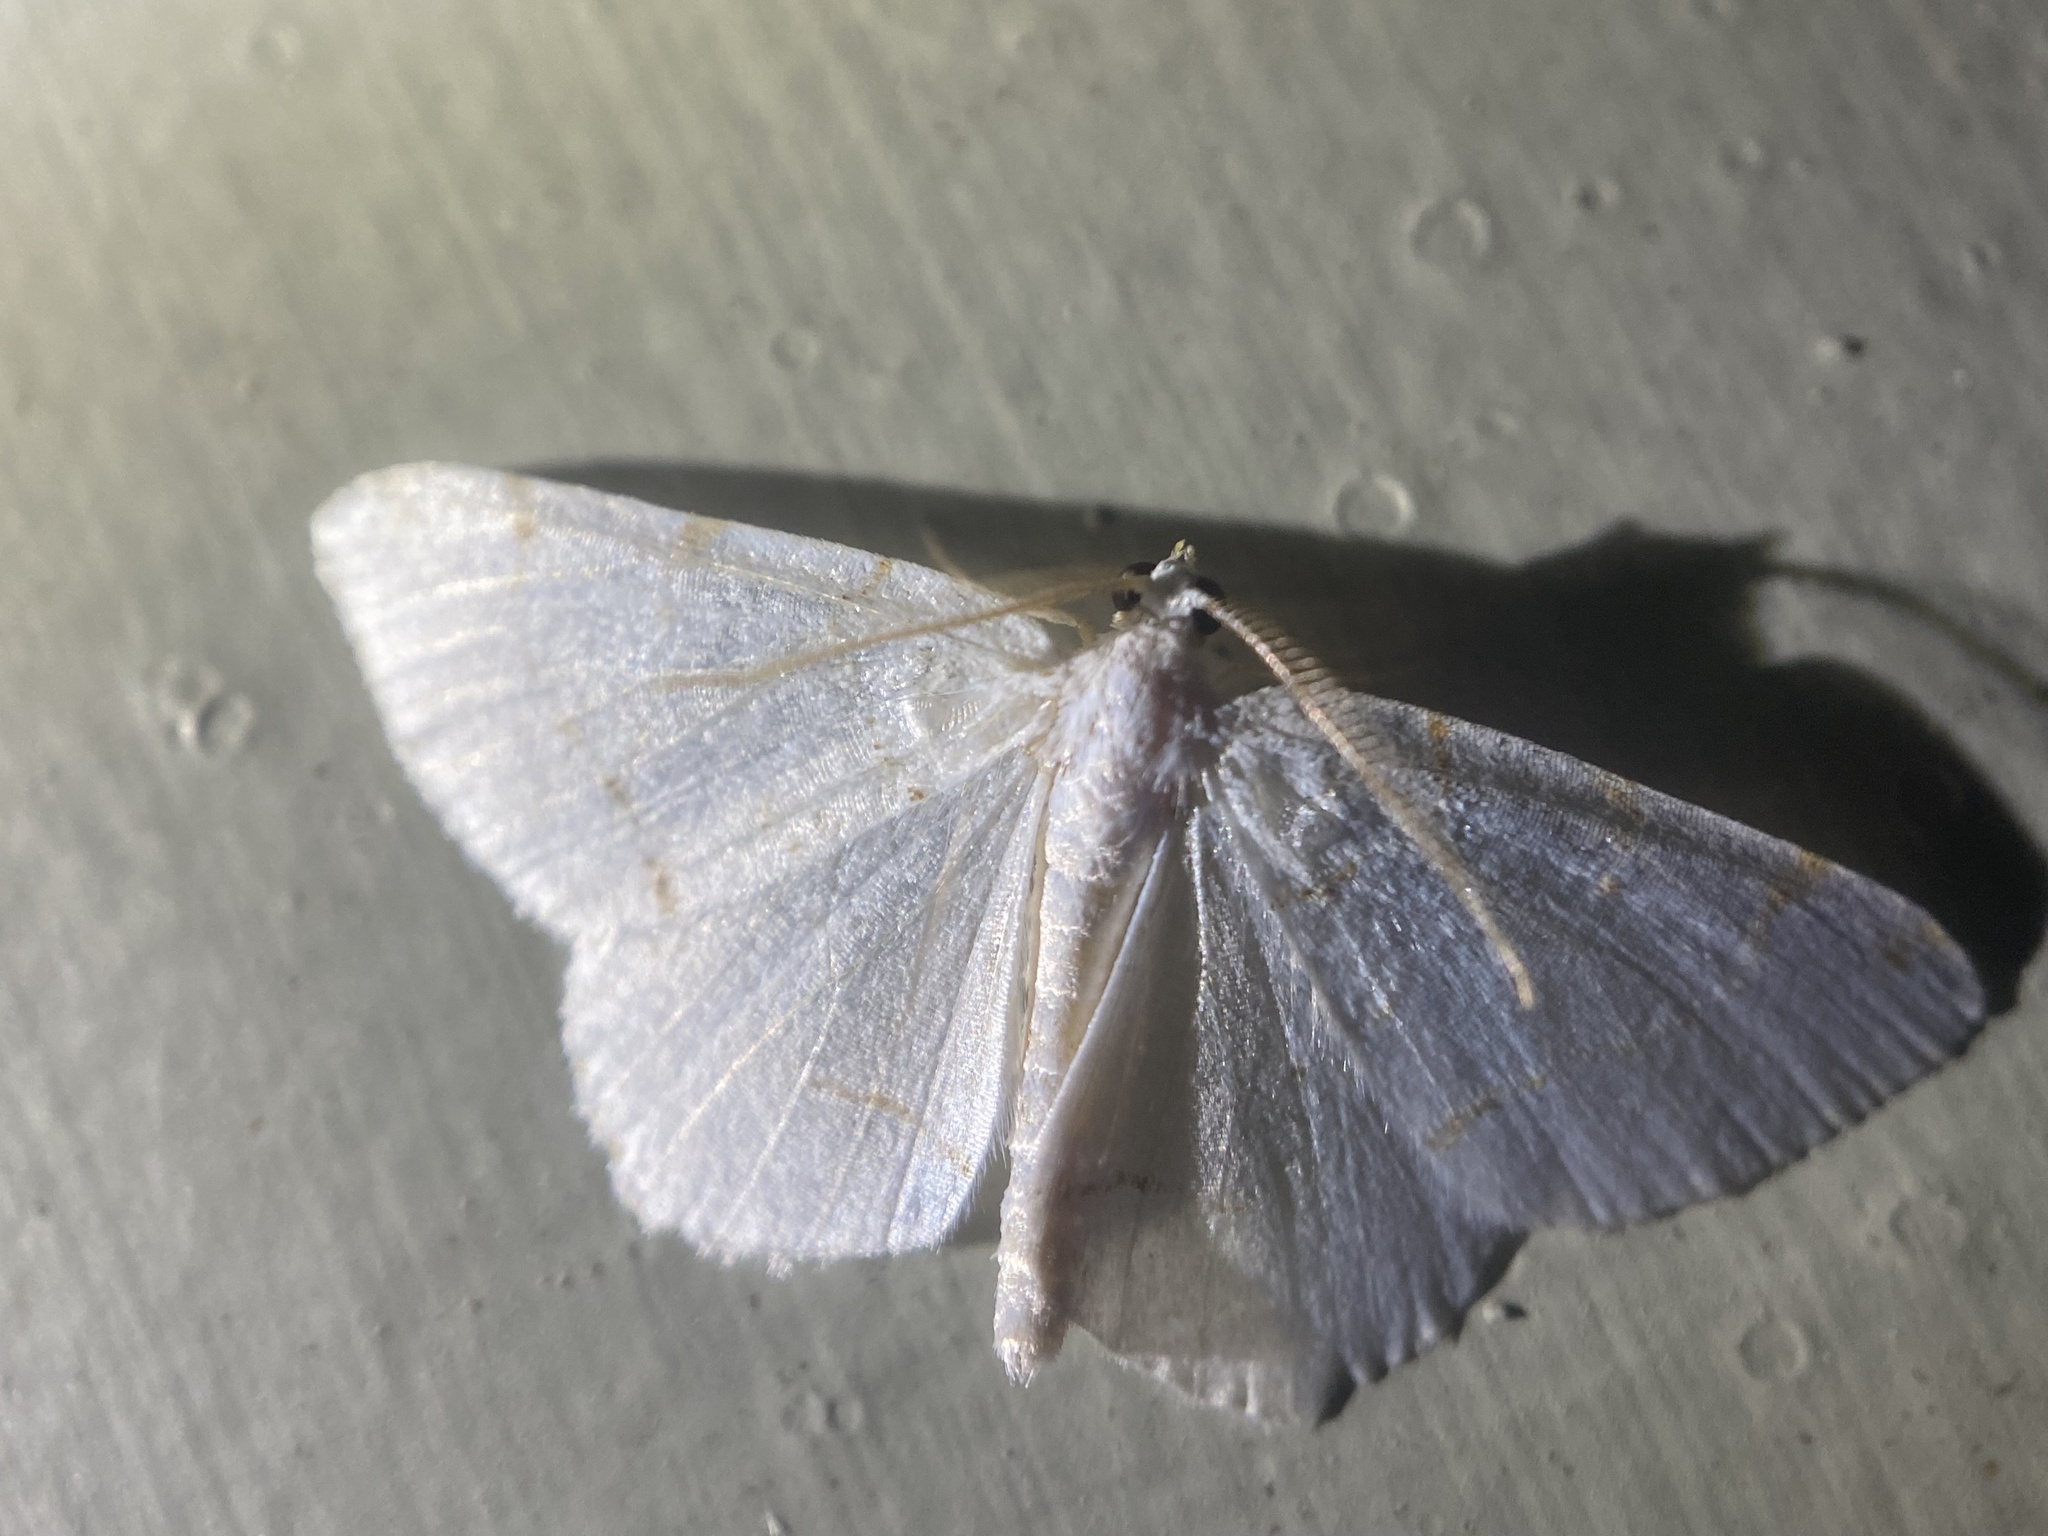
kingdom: Animalia
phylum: Arthropoda
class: Insecta
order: Lepidoptera
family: Geometridae
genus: Macaria
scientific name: Macaria pustularia
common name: Lesser maple spanworm moth
